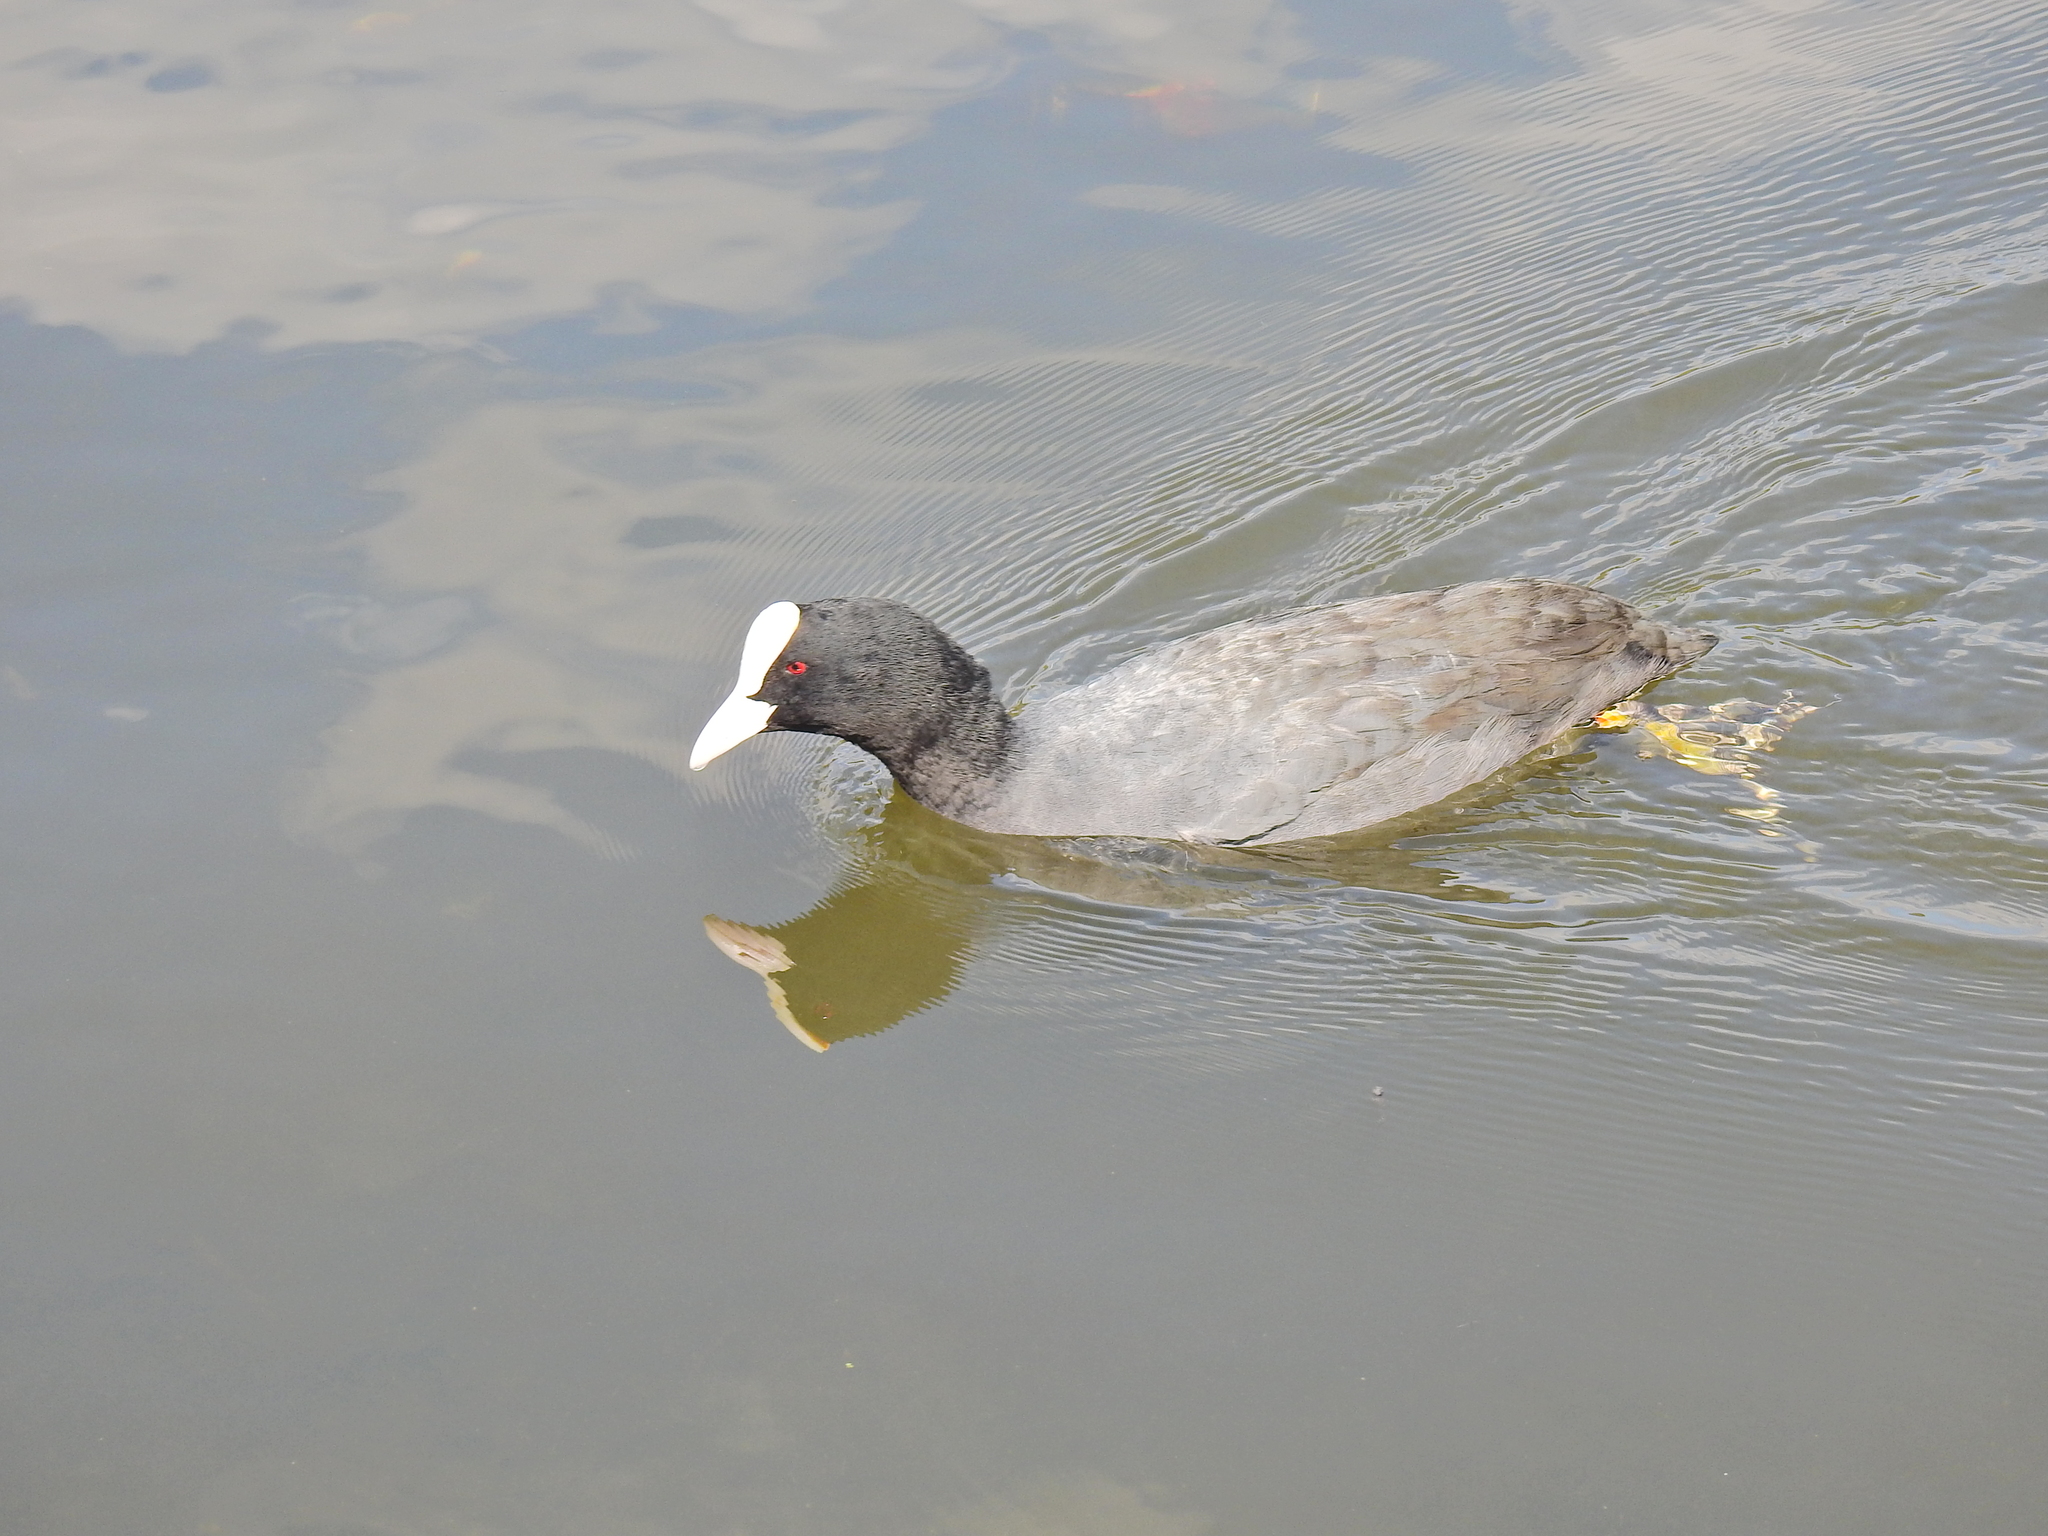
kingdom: Animalia
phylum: Chordata
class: Aves
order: Gruiformes
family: Rallidae
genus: Fulica
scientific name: Fulica atra
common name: Eurasian coot
